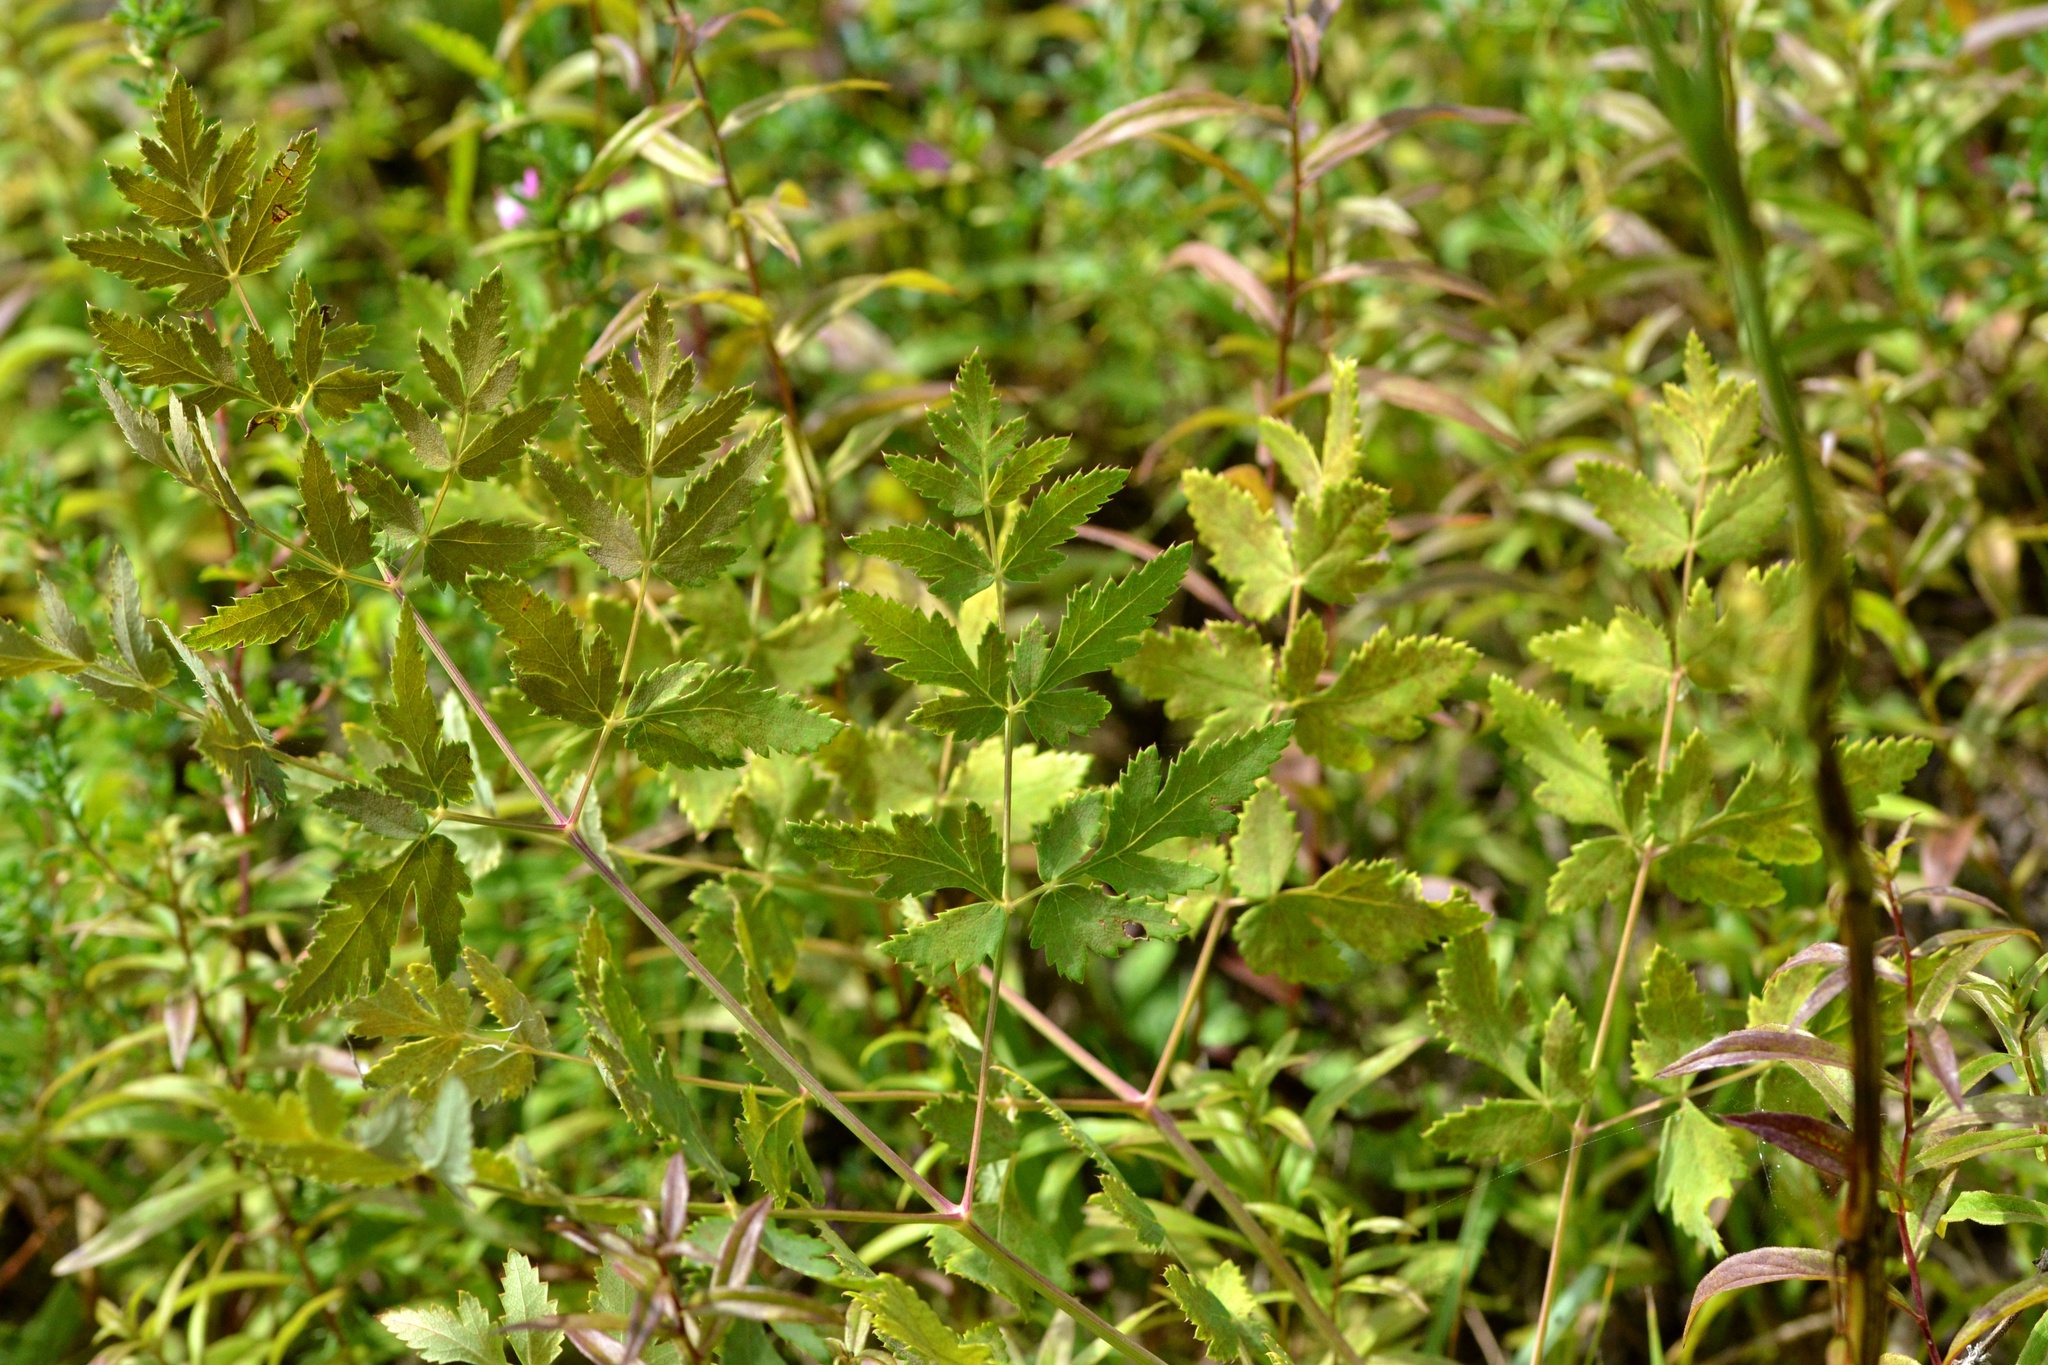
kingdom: Plantae
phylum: Tracheophyta
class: Magnoliopsida
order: Apiales
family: Apiaceae
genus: Cervaria
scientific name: Cervaria rivini
